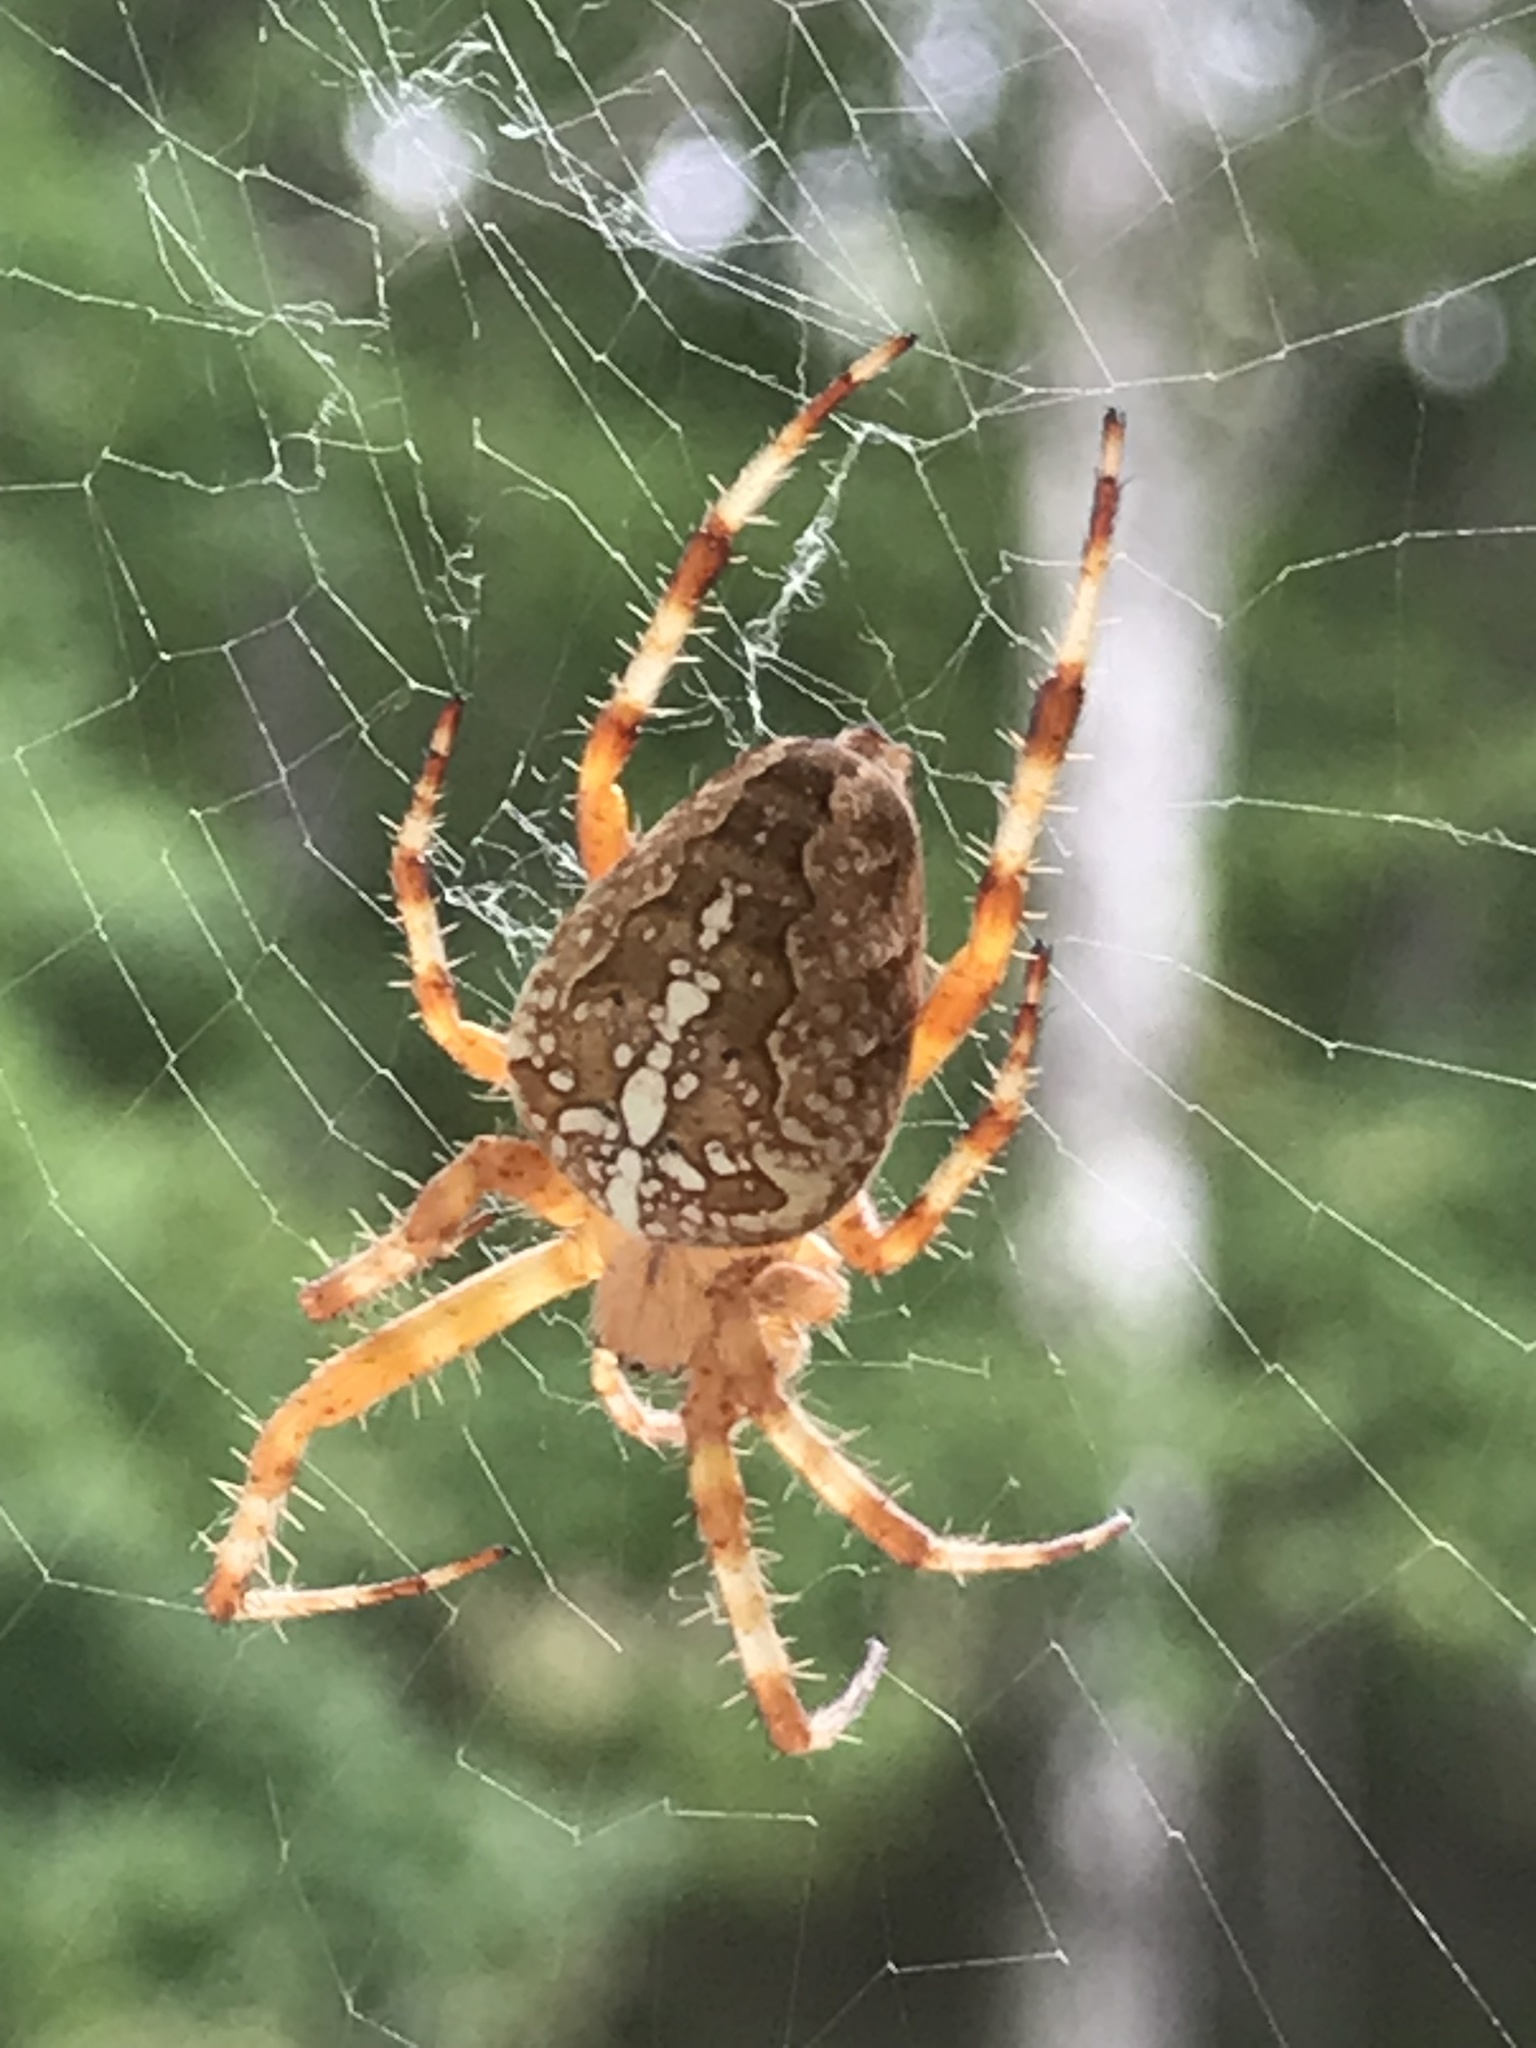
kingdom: Animalia
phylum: Arthropoda
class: Arachnida
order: Araneae
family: Araneidae
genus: Araneus
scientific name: Araneus diadematus
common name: Cross orbweaver
